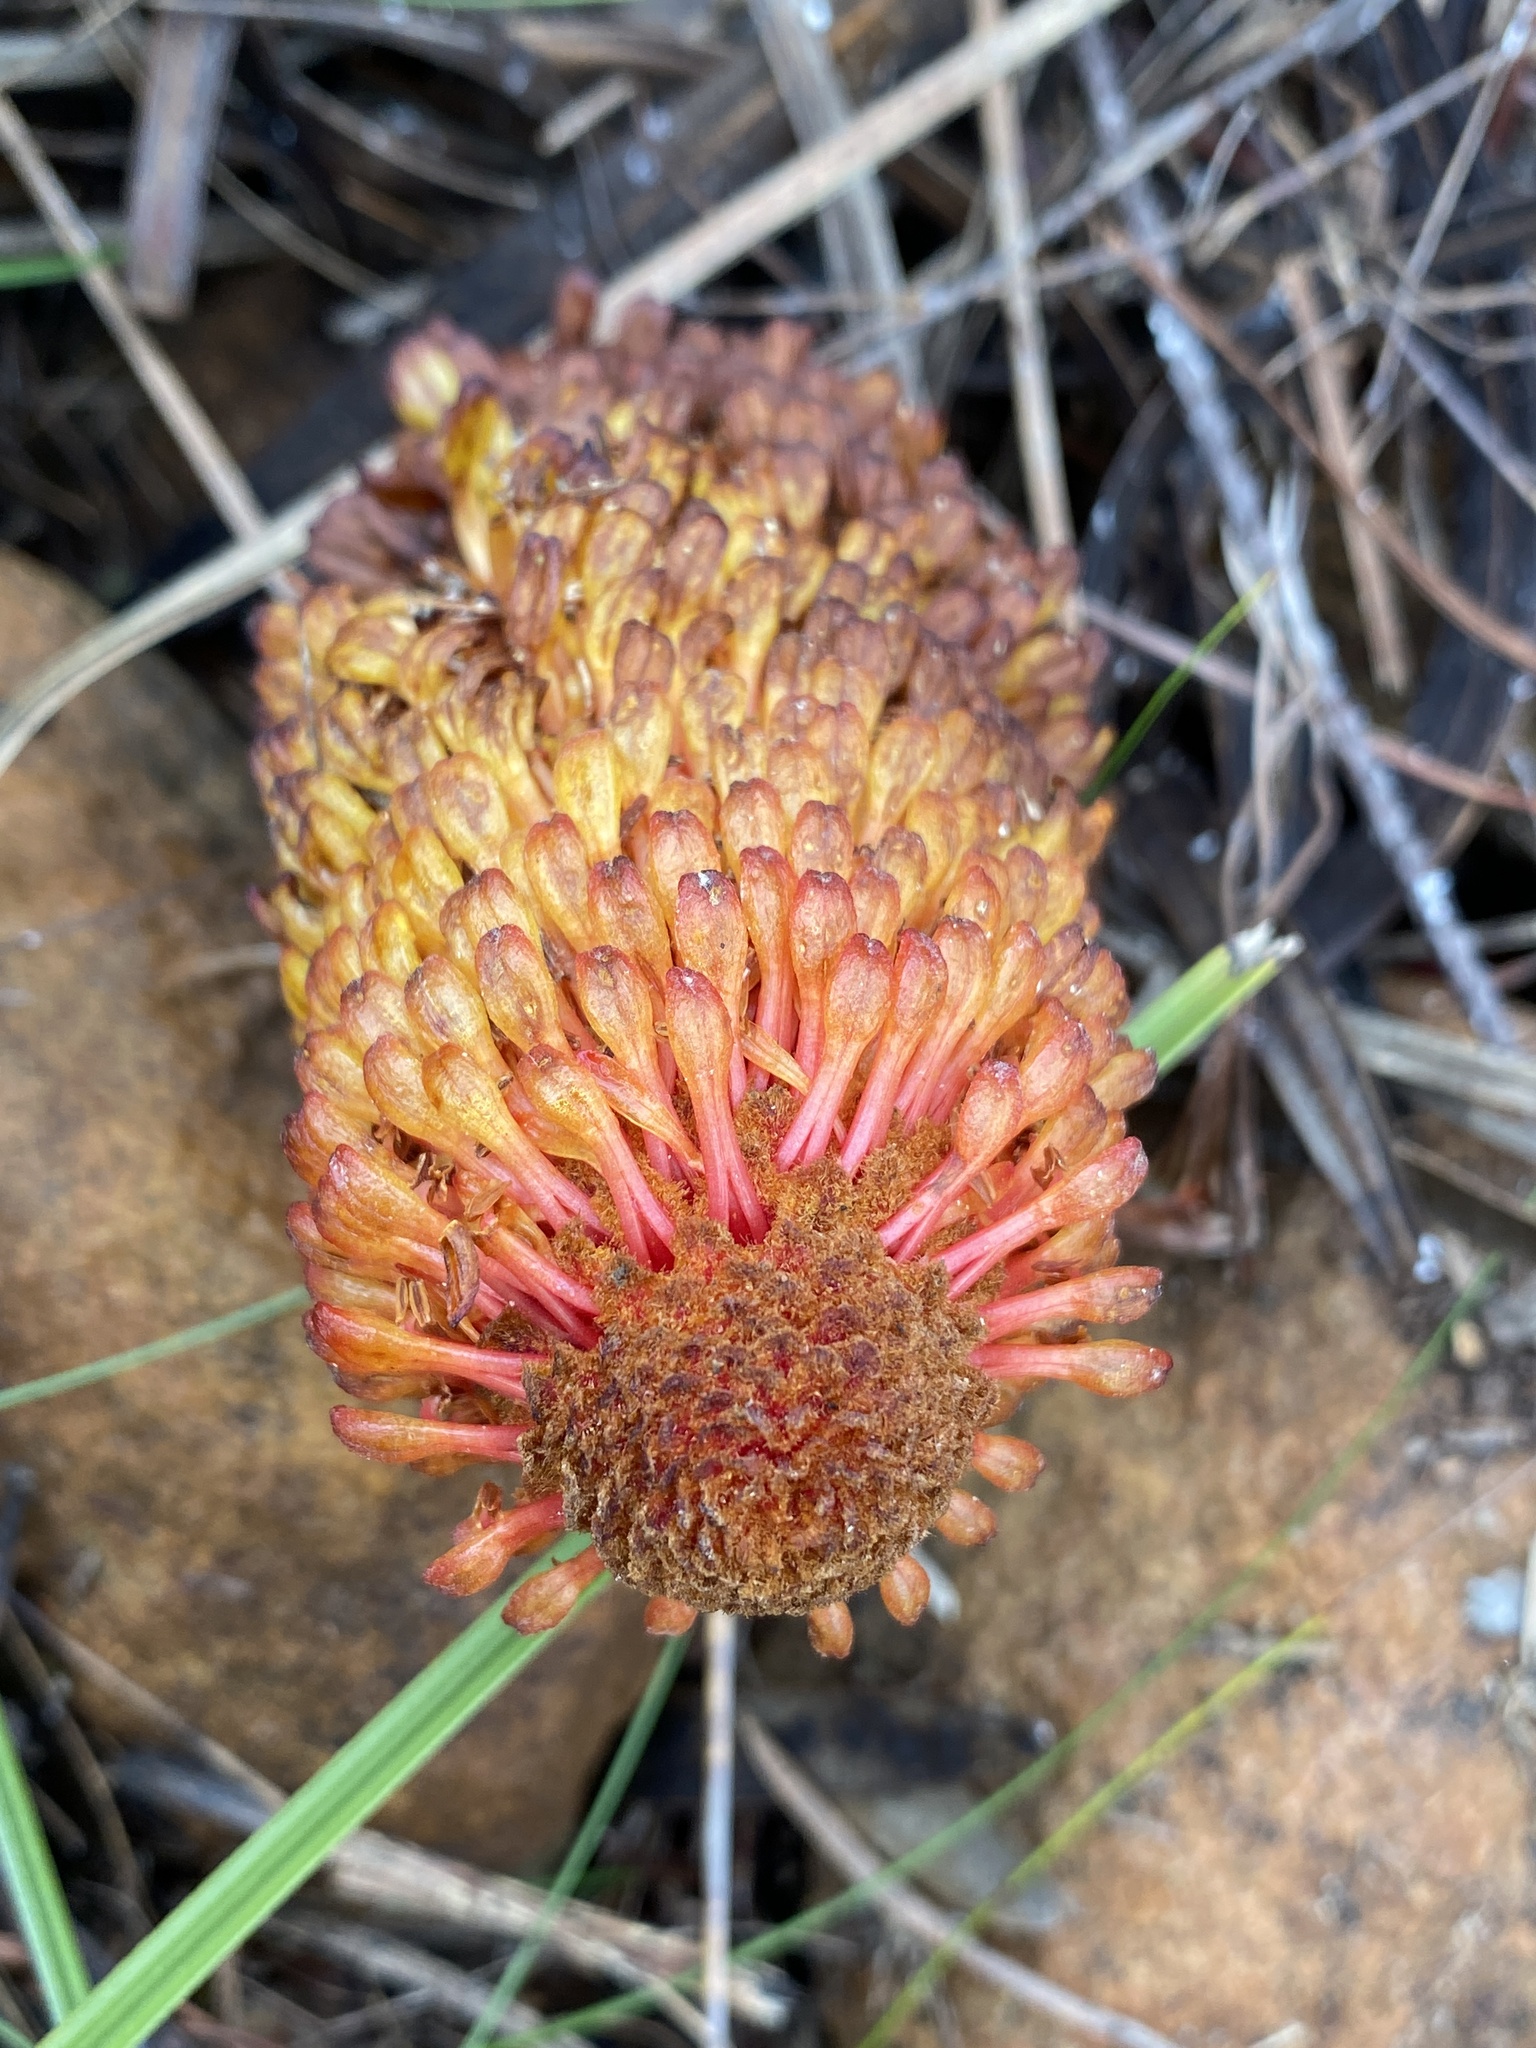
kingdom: Plantae
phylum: Tracheophyta
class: Magnoliopsida
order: Santalales
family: Mystropetalaceae
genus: Mystropetalon
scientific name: Mystropetalon thomii
